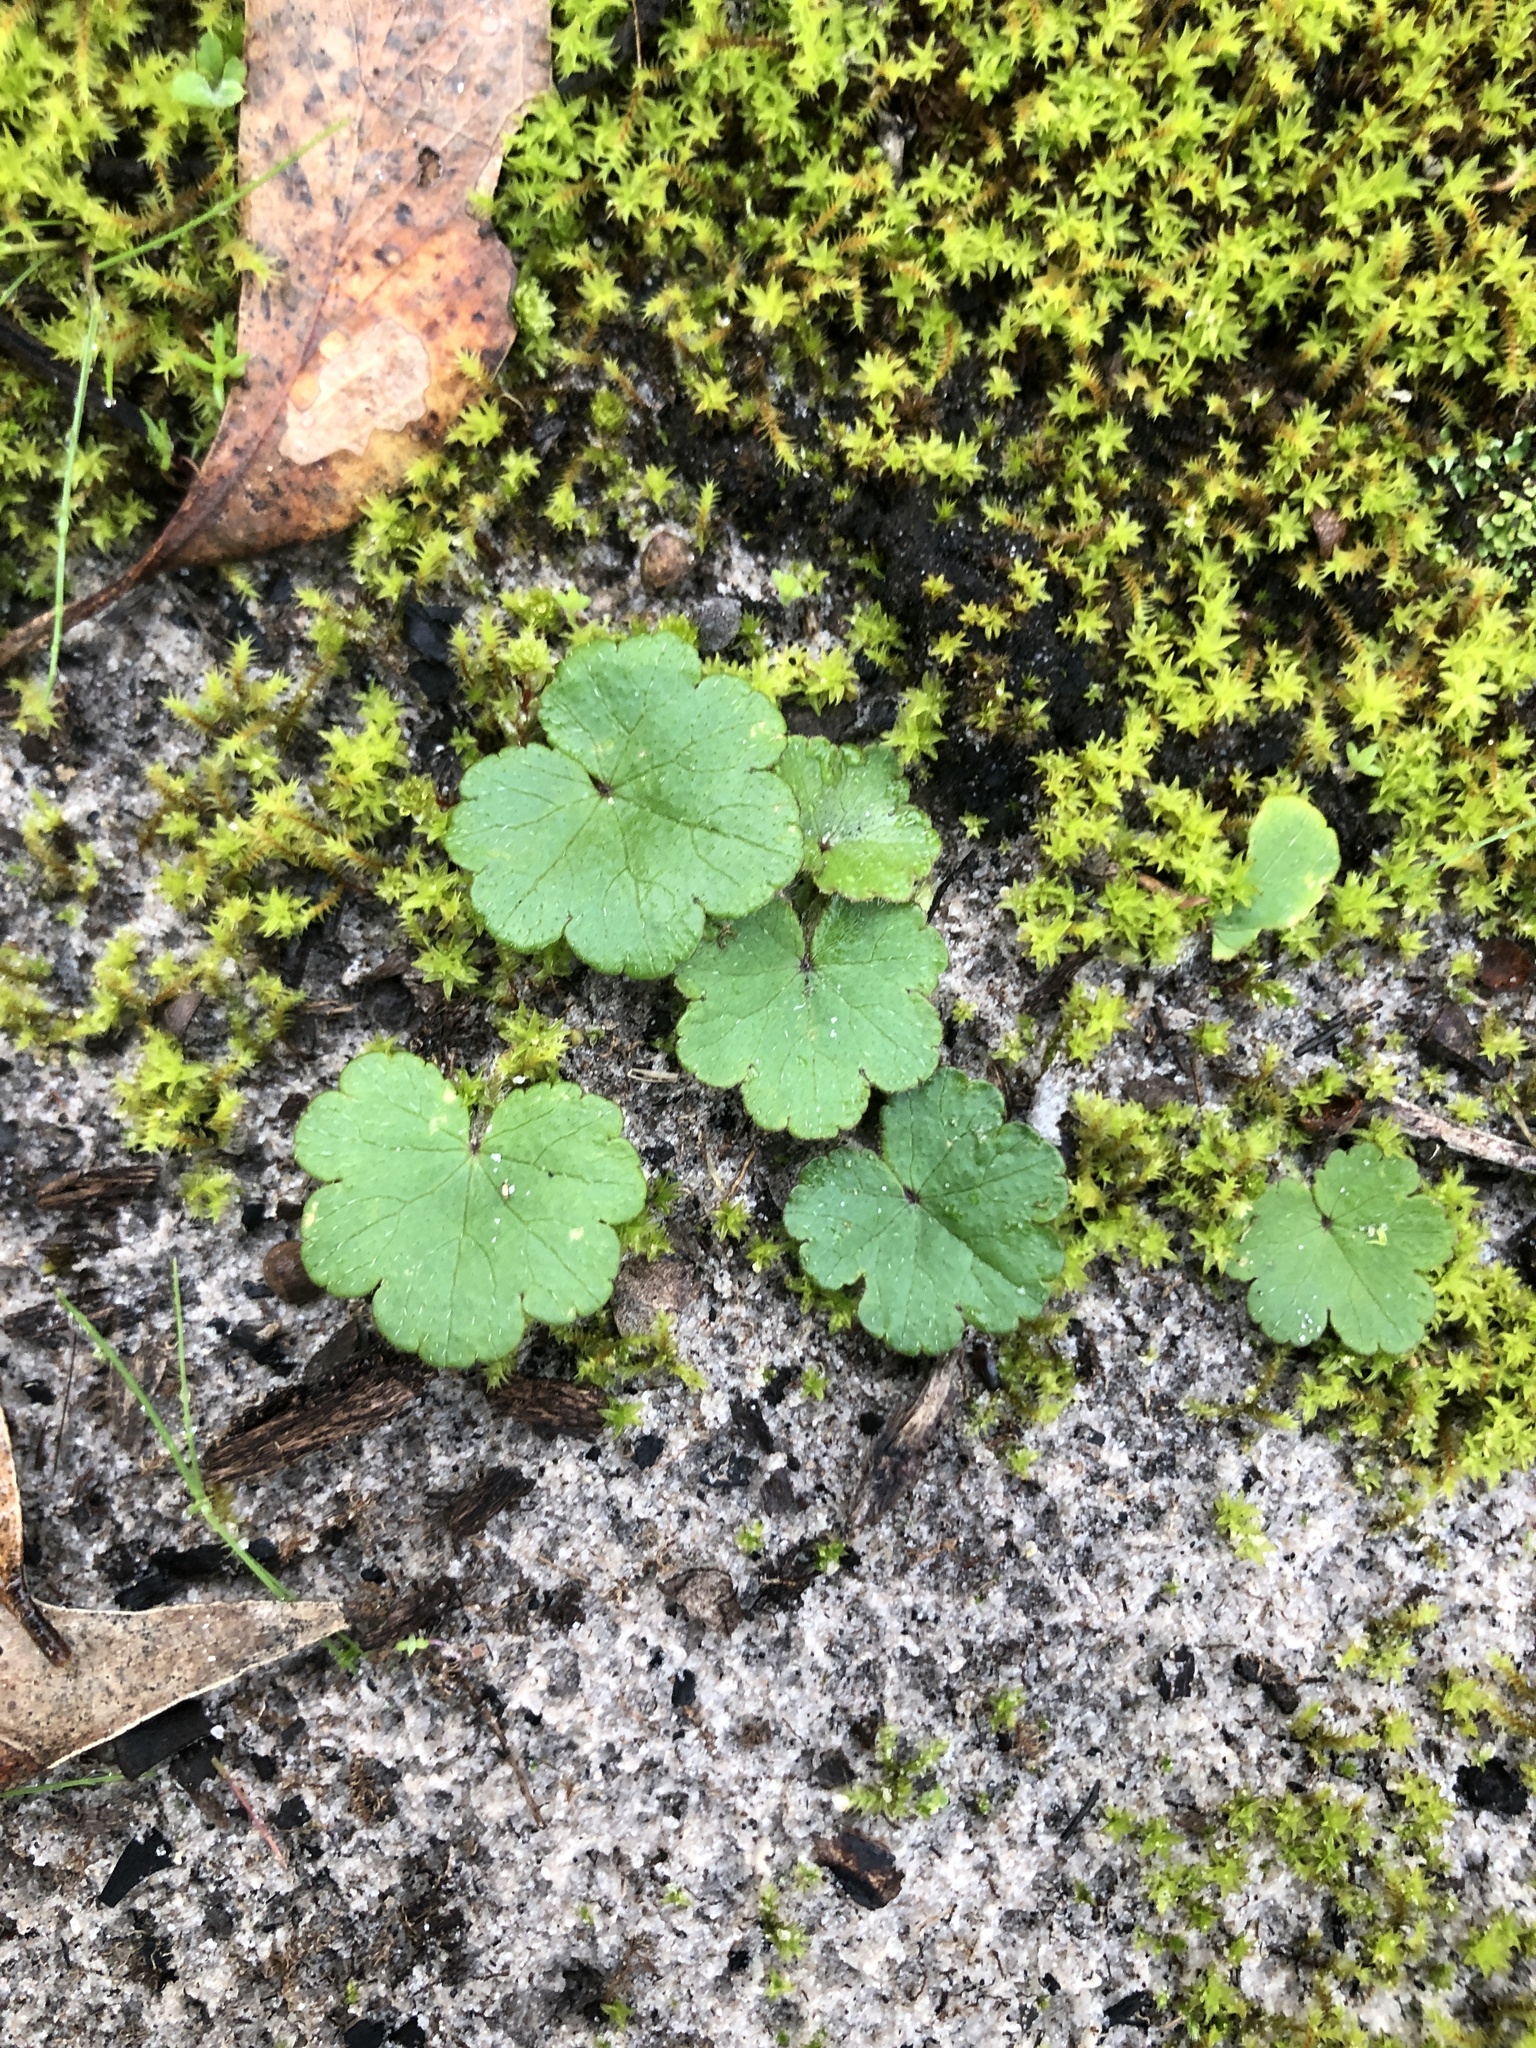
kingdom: Plantae
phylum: Tracheophyta
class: Magnoliopsida
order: Apiales
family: Araliaceae
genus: Hydrocotyle
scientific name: Hydrocotyle hirta
